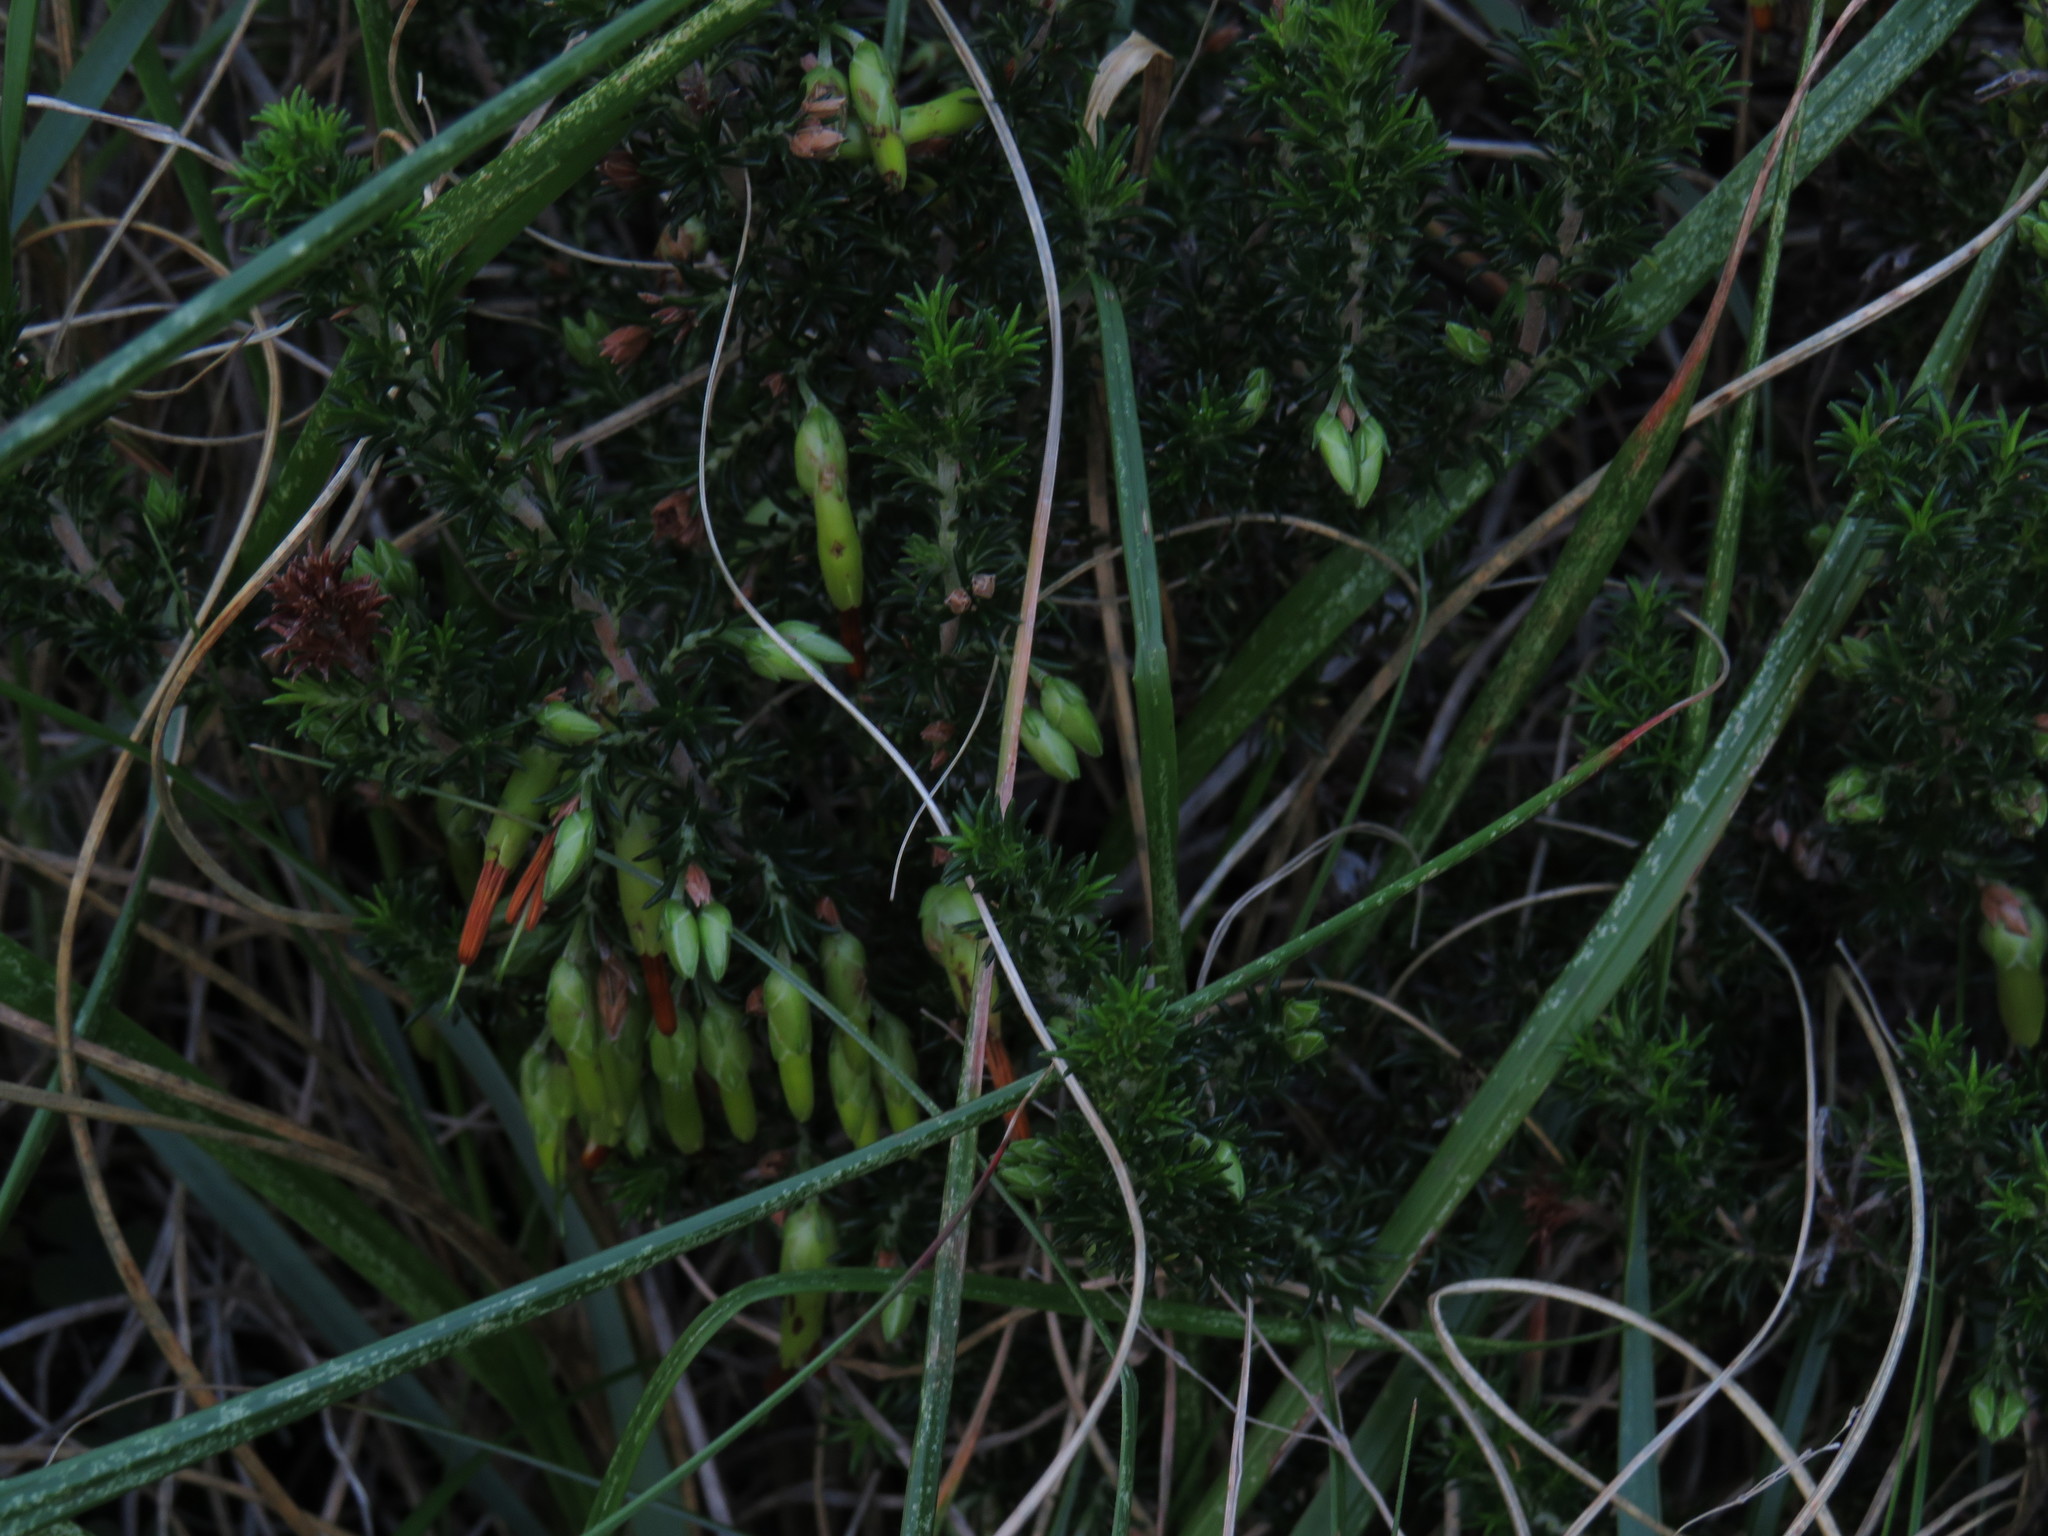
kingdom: Plantae
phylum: Tracheophyta
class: Magnoliopsida
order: Ericales
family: Ericaceae
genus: Erica
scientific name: Erica coccinea
